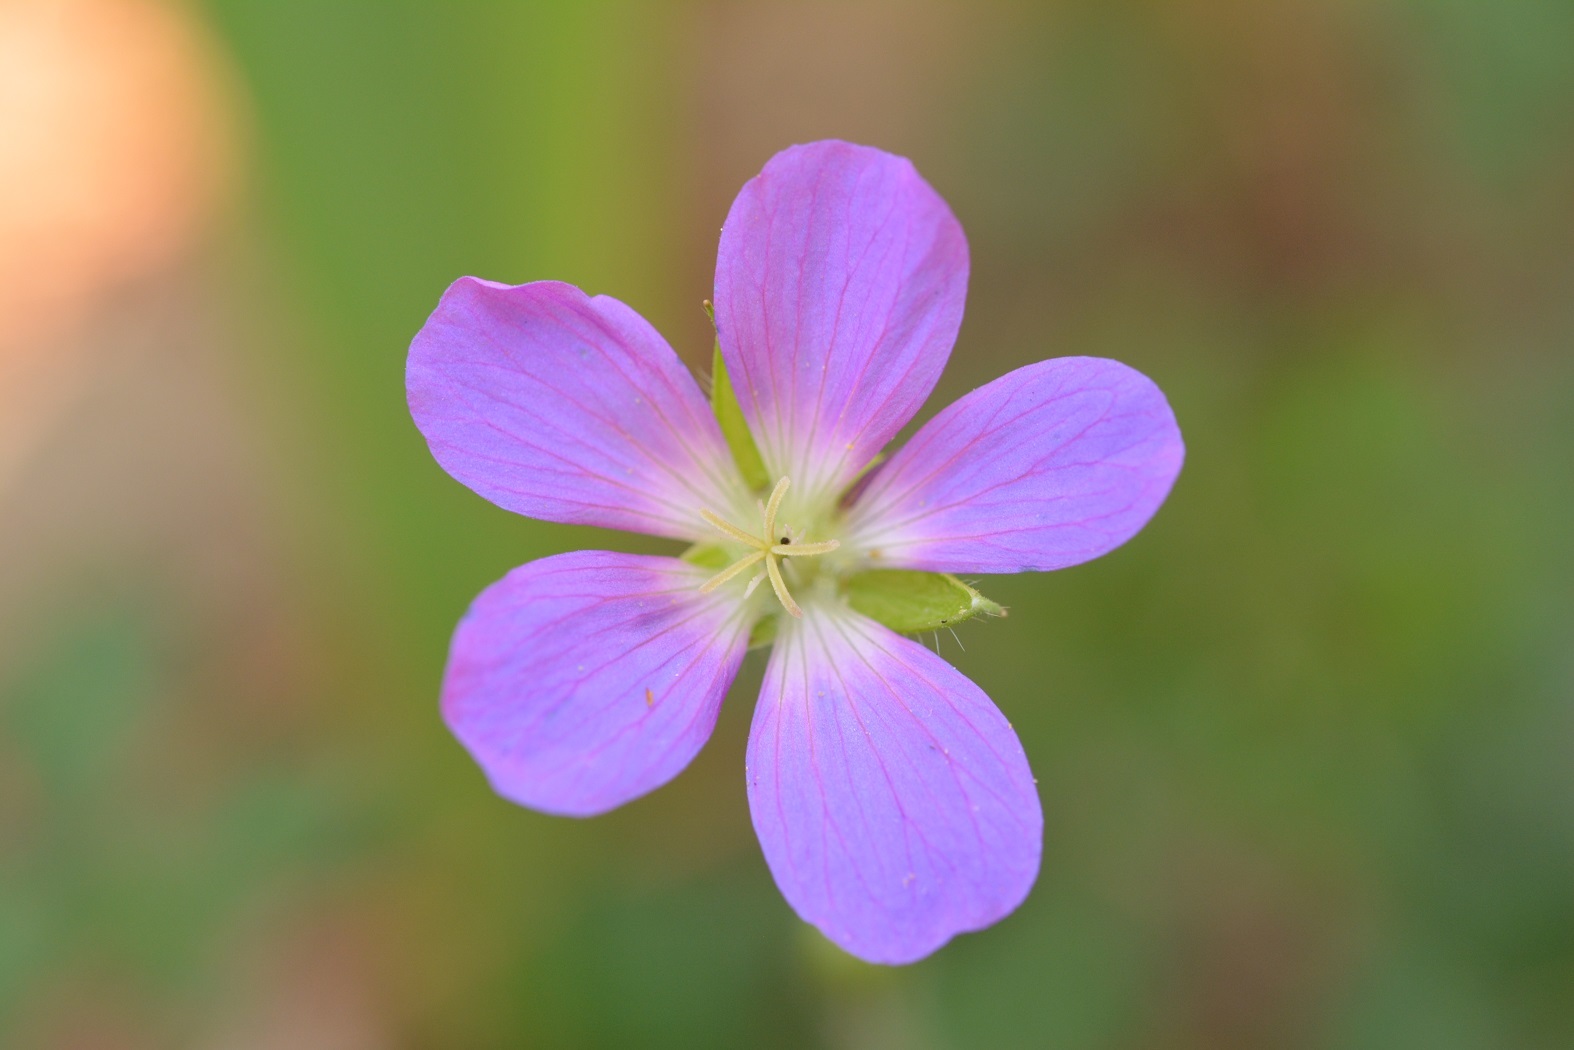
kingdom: Plantae
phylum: Tracheophyta
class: Magnoliopsida
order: Geraniales
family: Geraniaceae
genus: Geranium
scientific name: Geranium goldmanii
